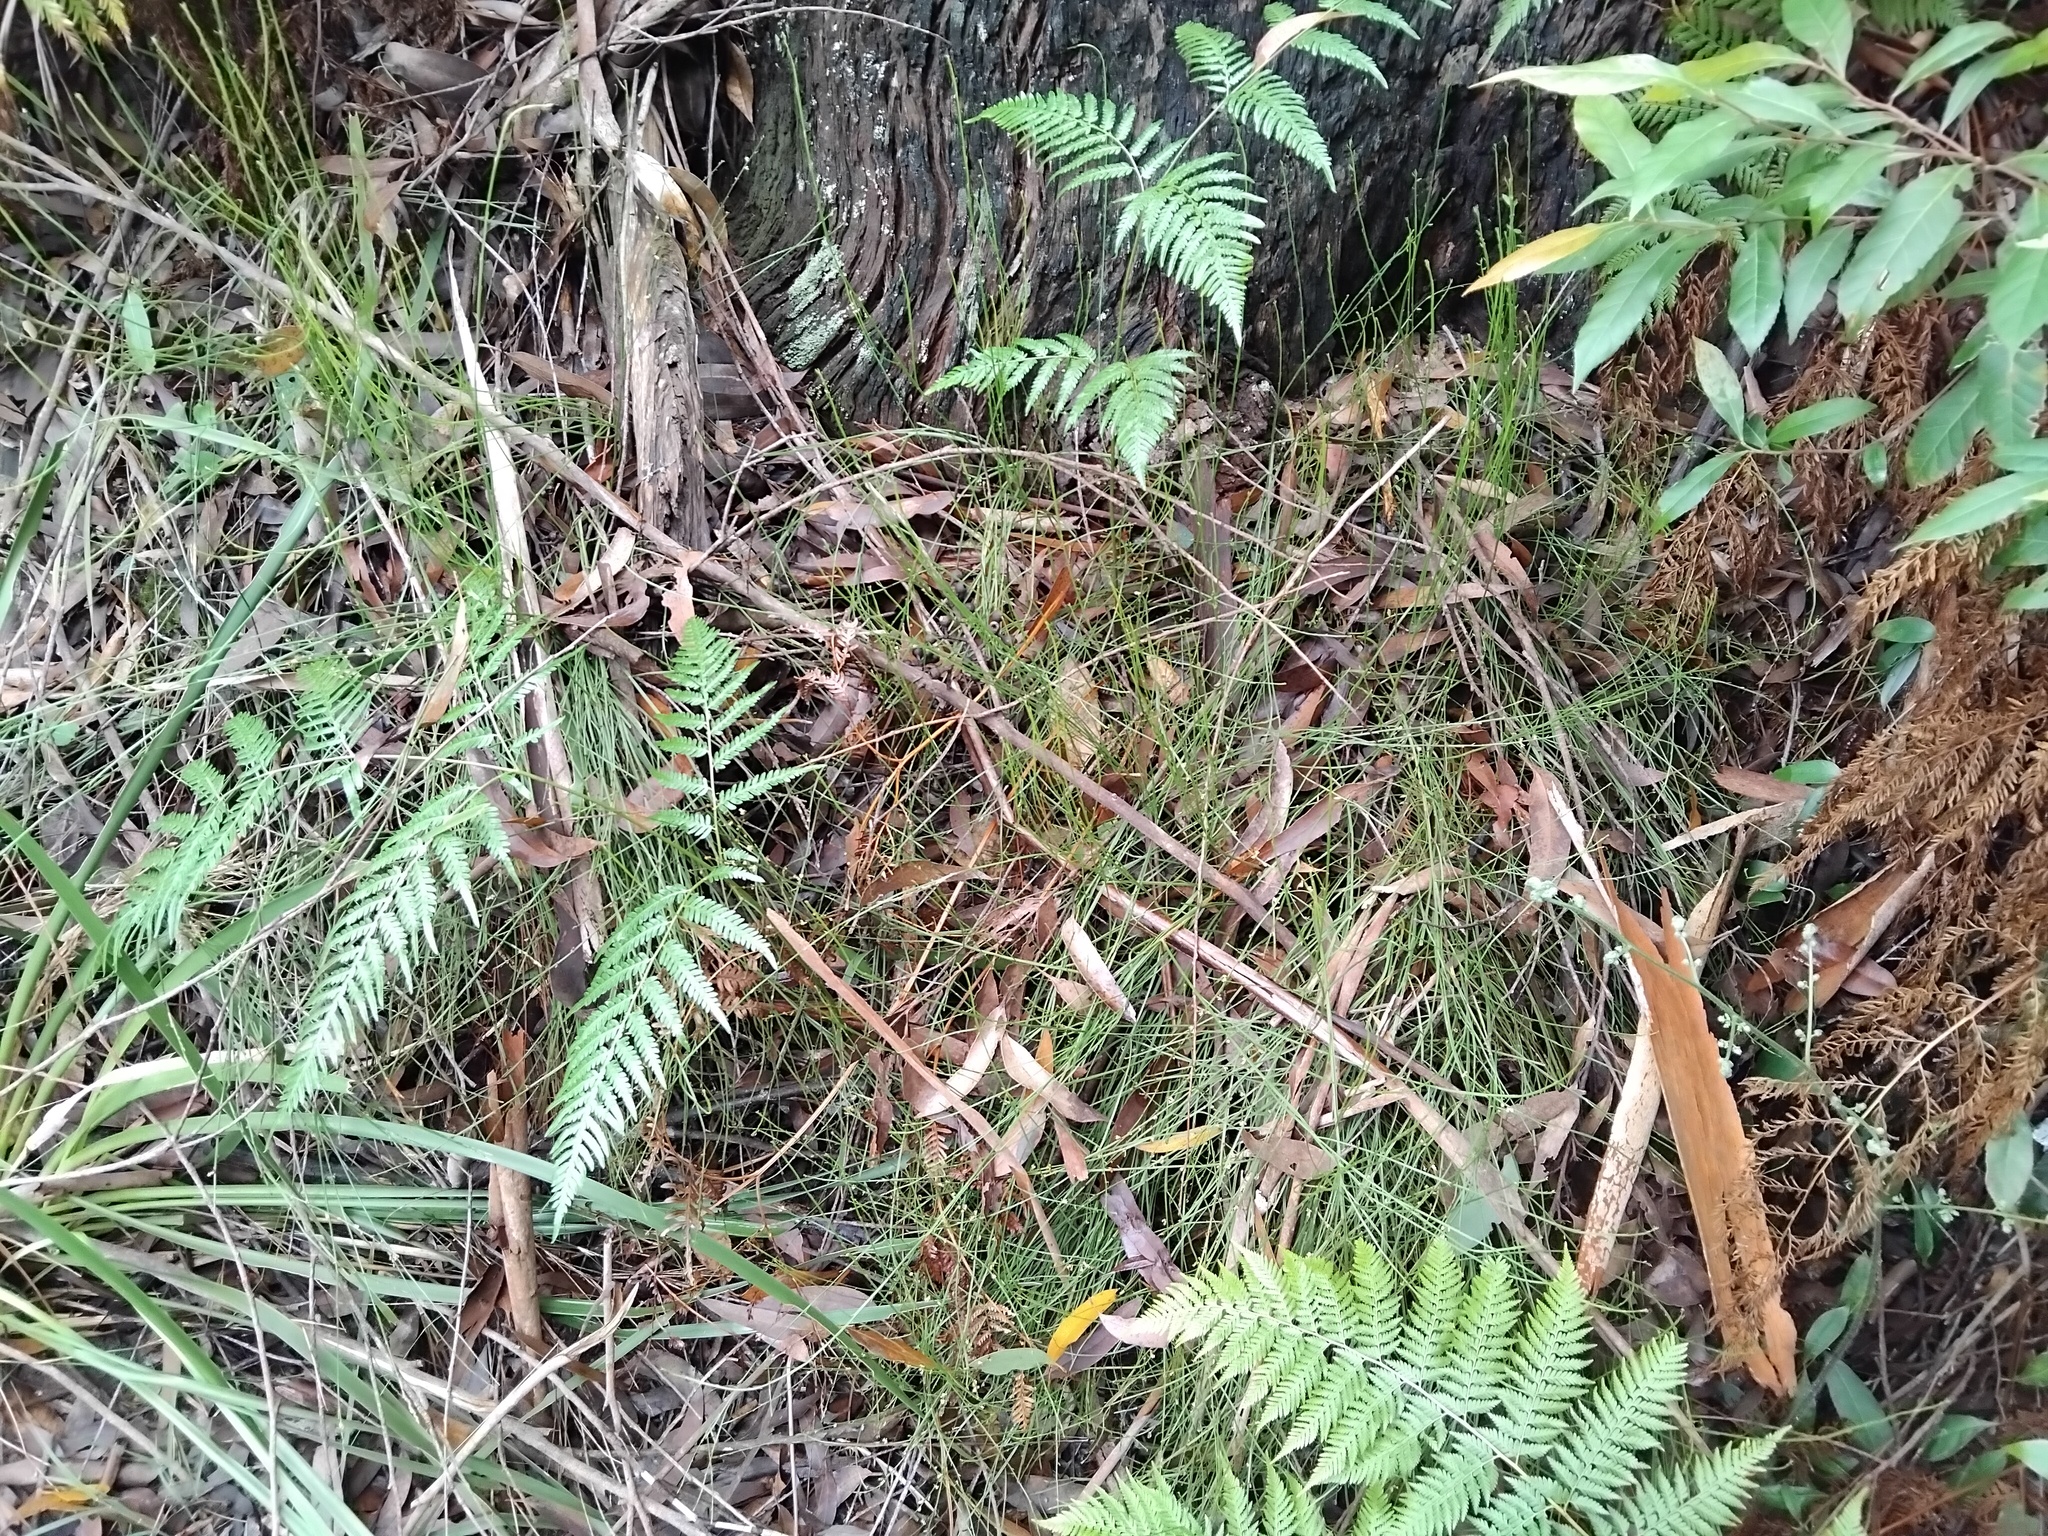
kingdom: Plantae
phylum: Tracheophyta
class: Magnoliopsida
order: Malpighiales
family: Euphorbiaceae
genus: Amperea
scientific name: Amperea xiphoclada
